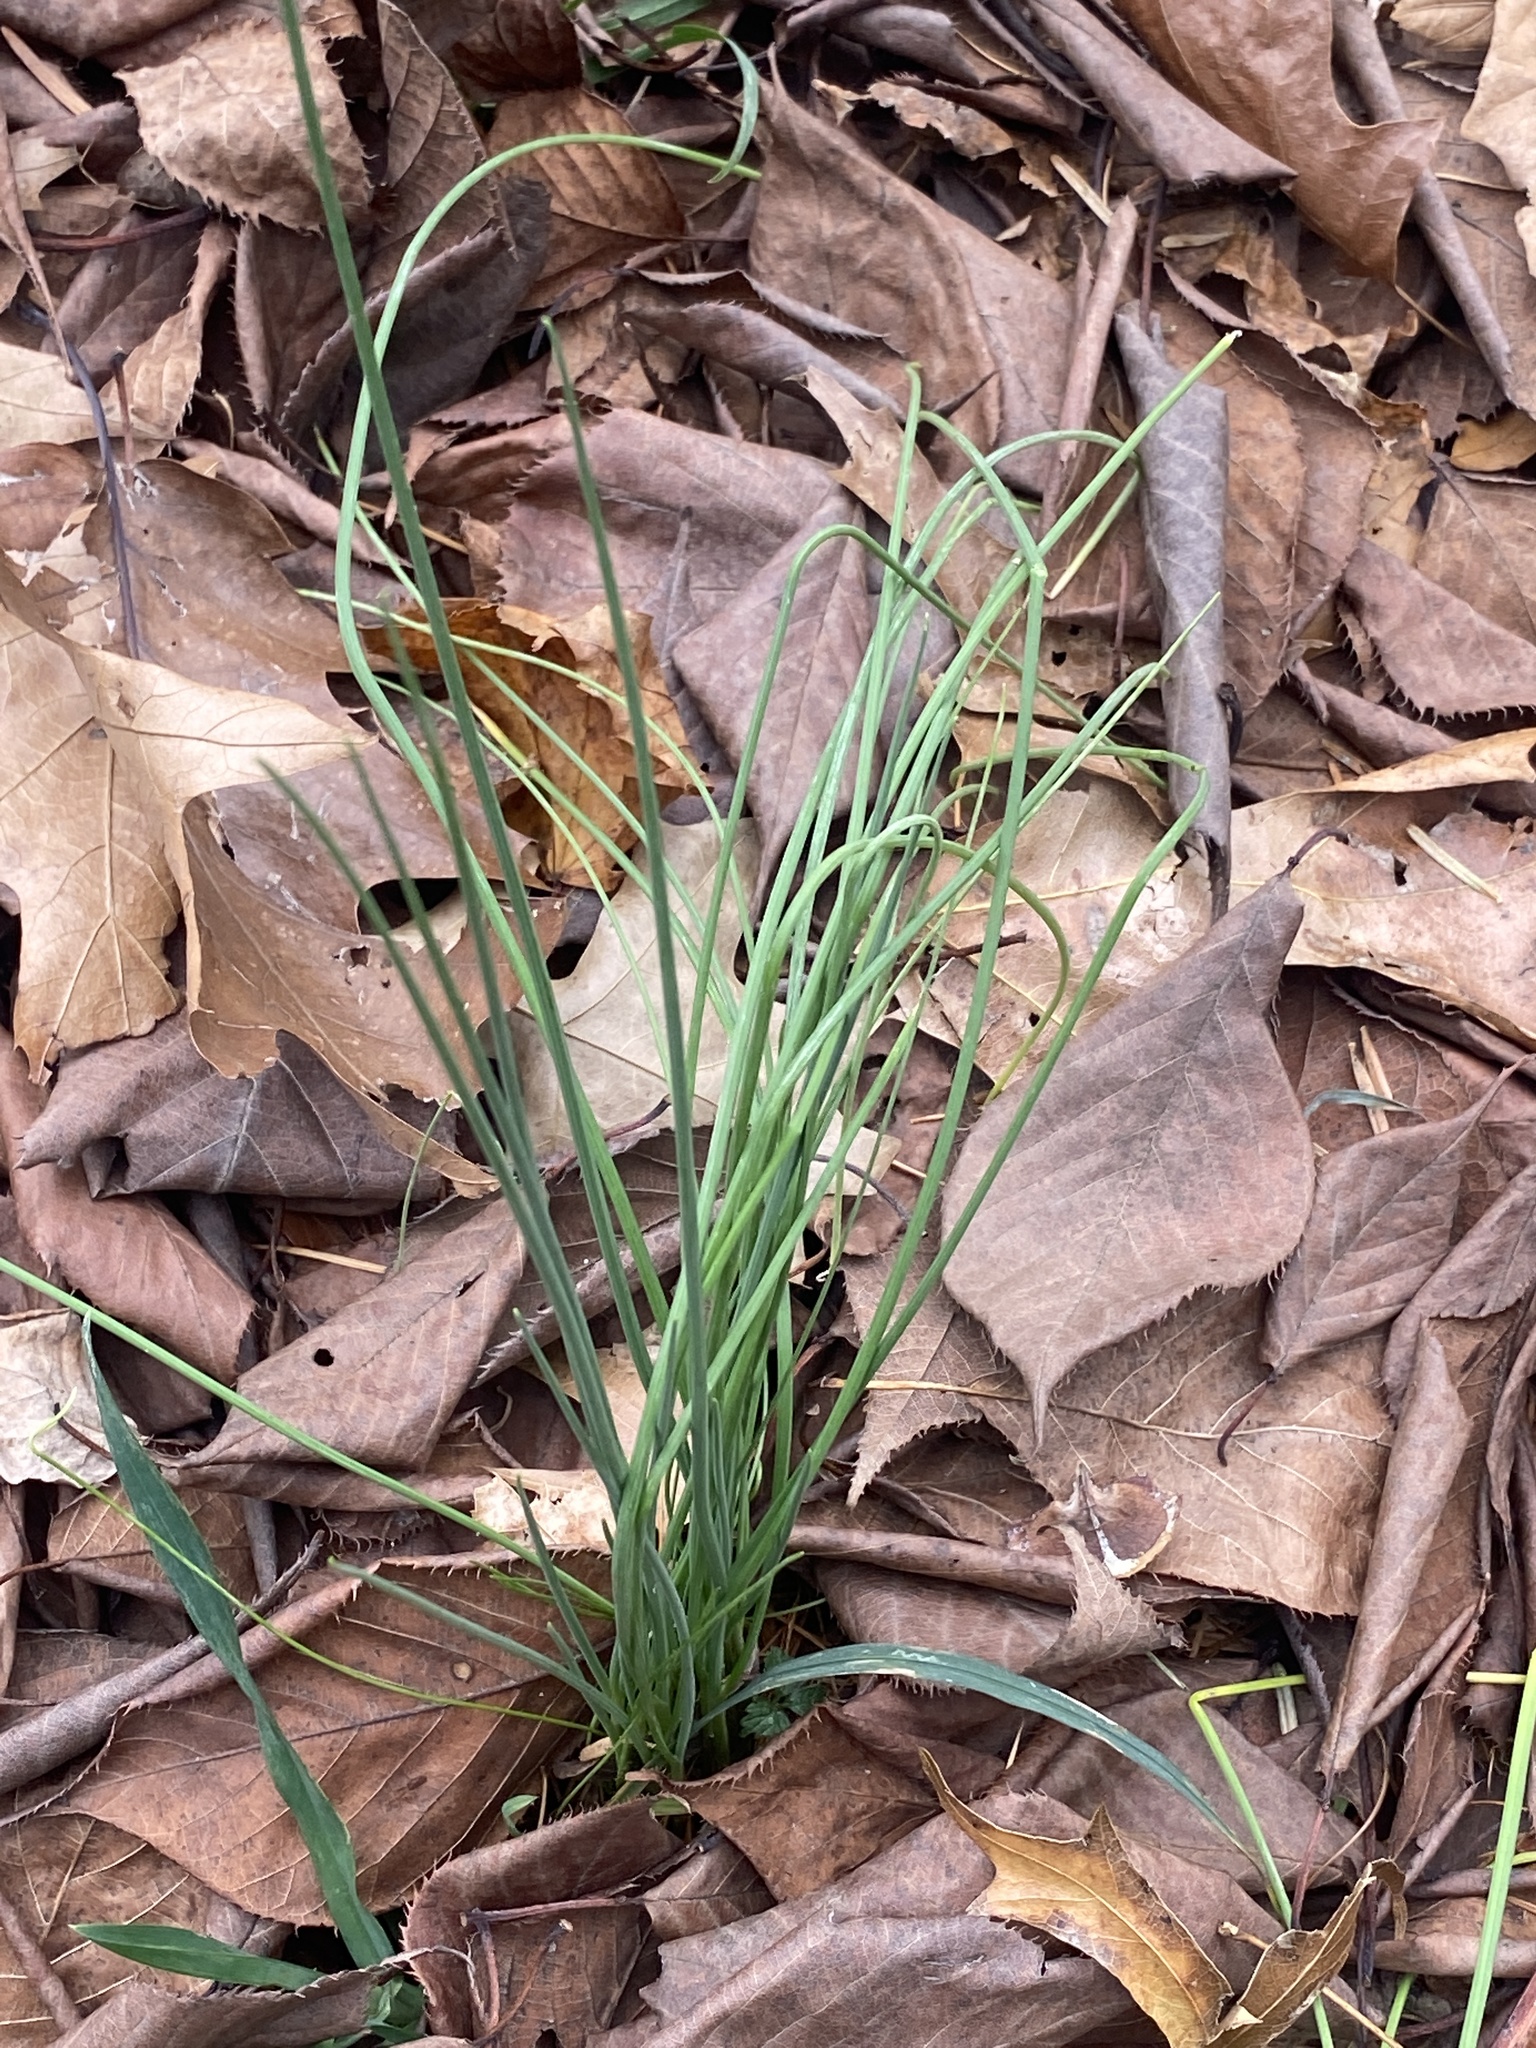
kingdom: Plantae
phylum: Tracheophyta
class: Liliopsida
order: Asparagales
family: Amaryllidaceae
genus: Allium
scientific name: Allium vineale
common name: Crow garlic
